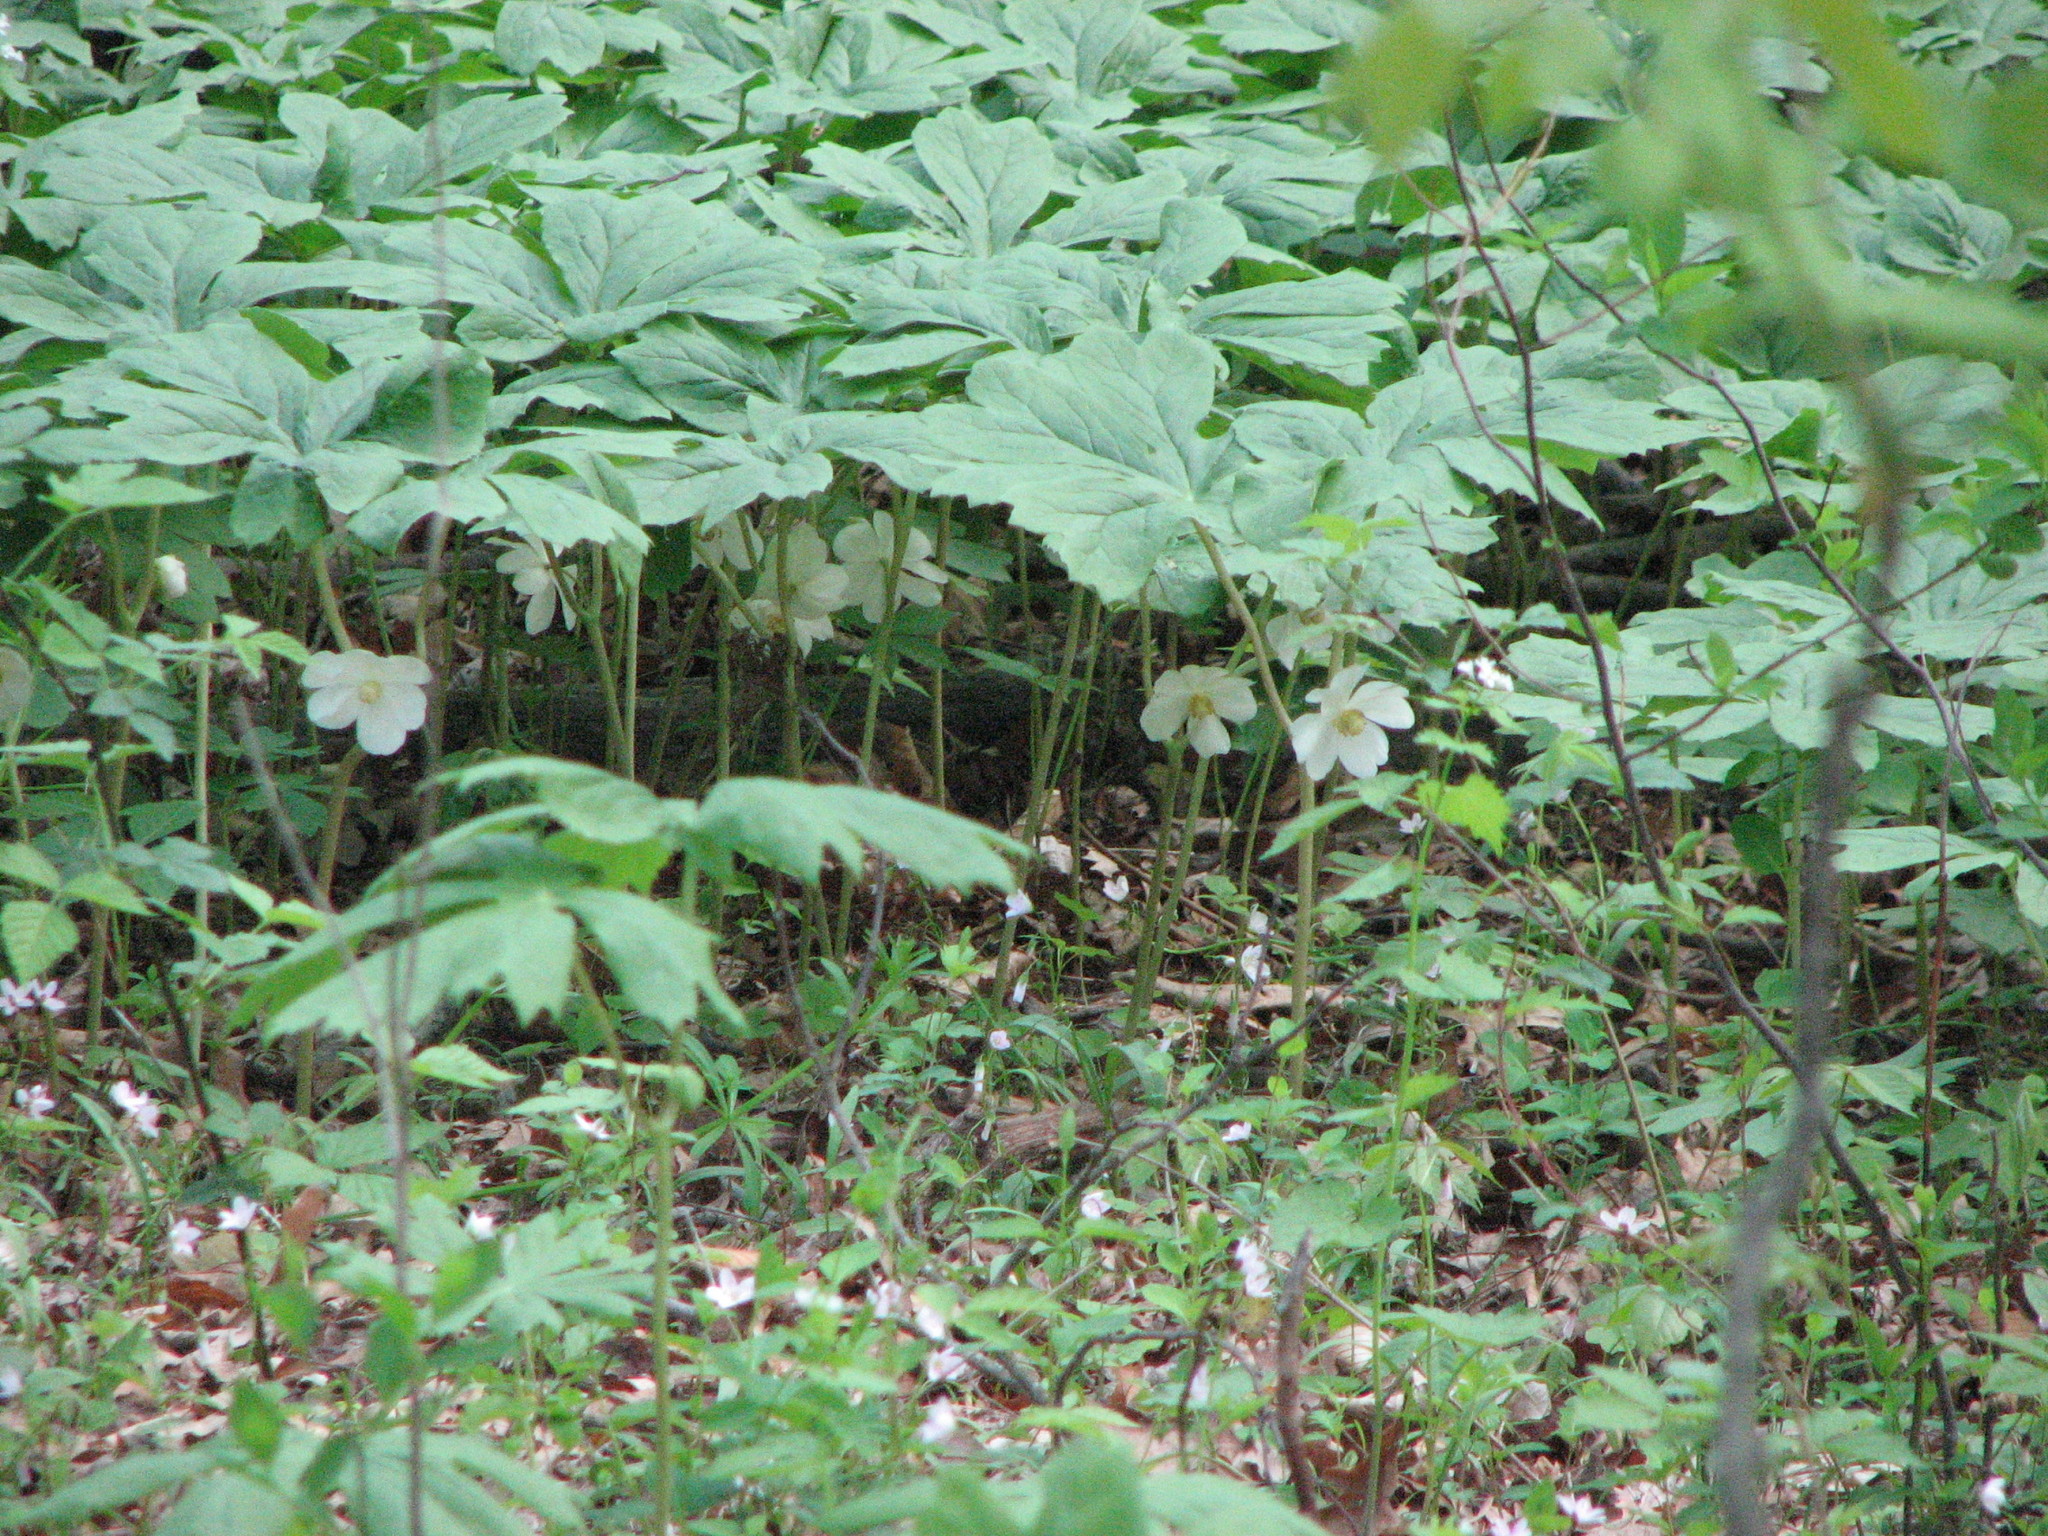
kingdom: Plantae
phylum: Tracheophyta
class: Magnoliopsida
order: Ranunculales
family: Berberidaceae
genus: Podophyllum
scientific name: Podophyllum peltatum
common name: Wild mandrake
